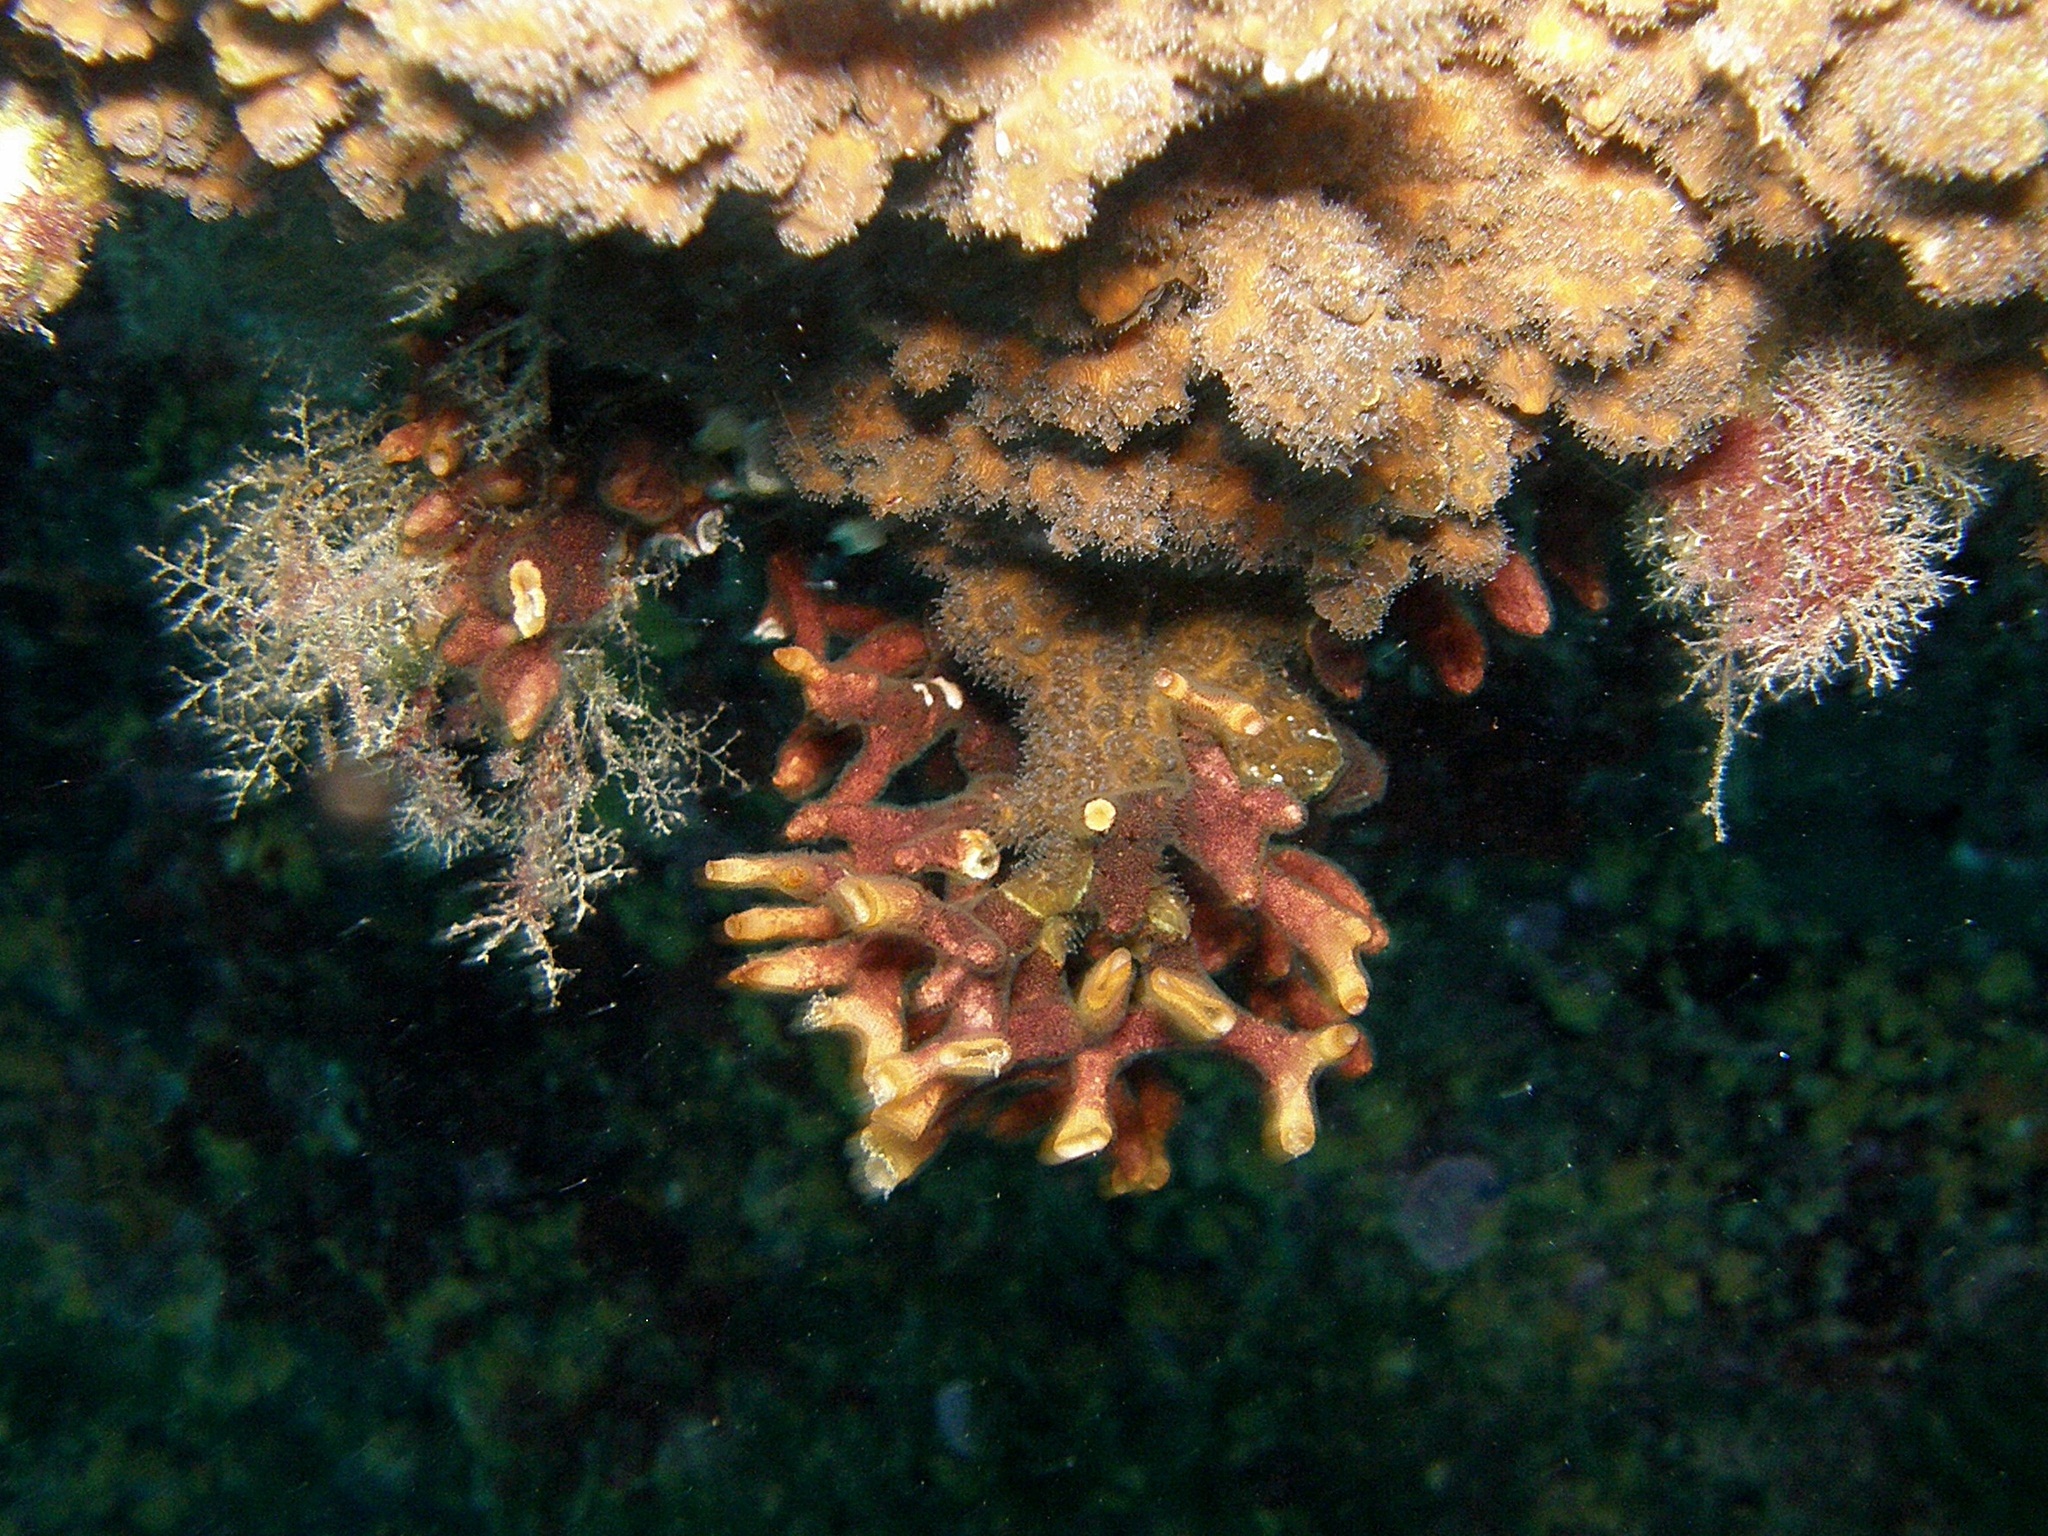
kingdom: Animalia
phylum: Bryozoa
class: Gymnolaemata
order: Cheilostomatida
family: Schizoporellidae
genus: Schizoporella
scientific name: Schizoporella errata
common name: Branching bryozoan
